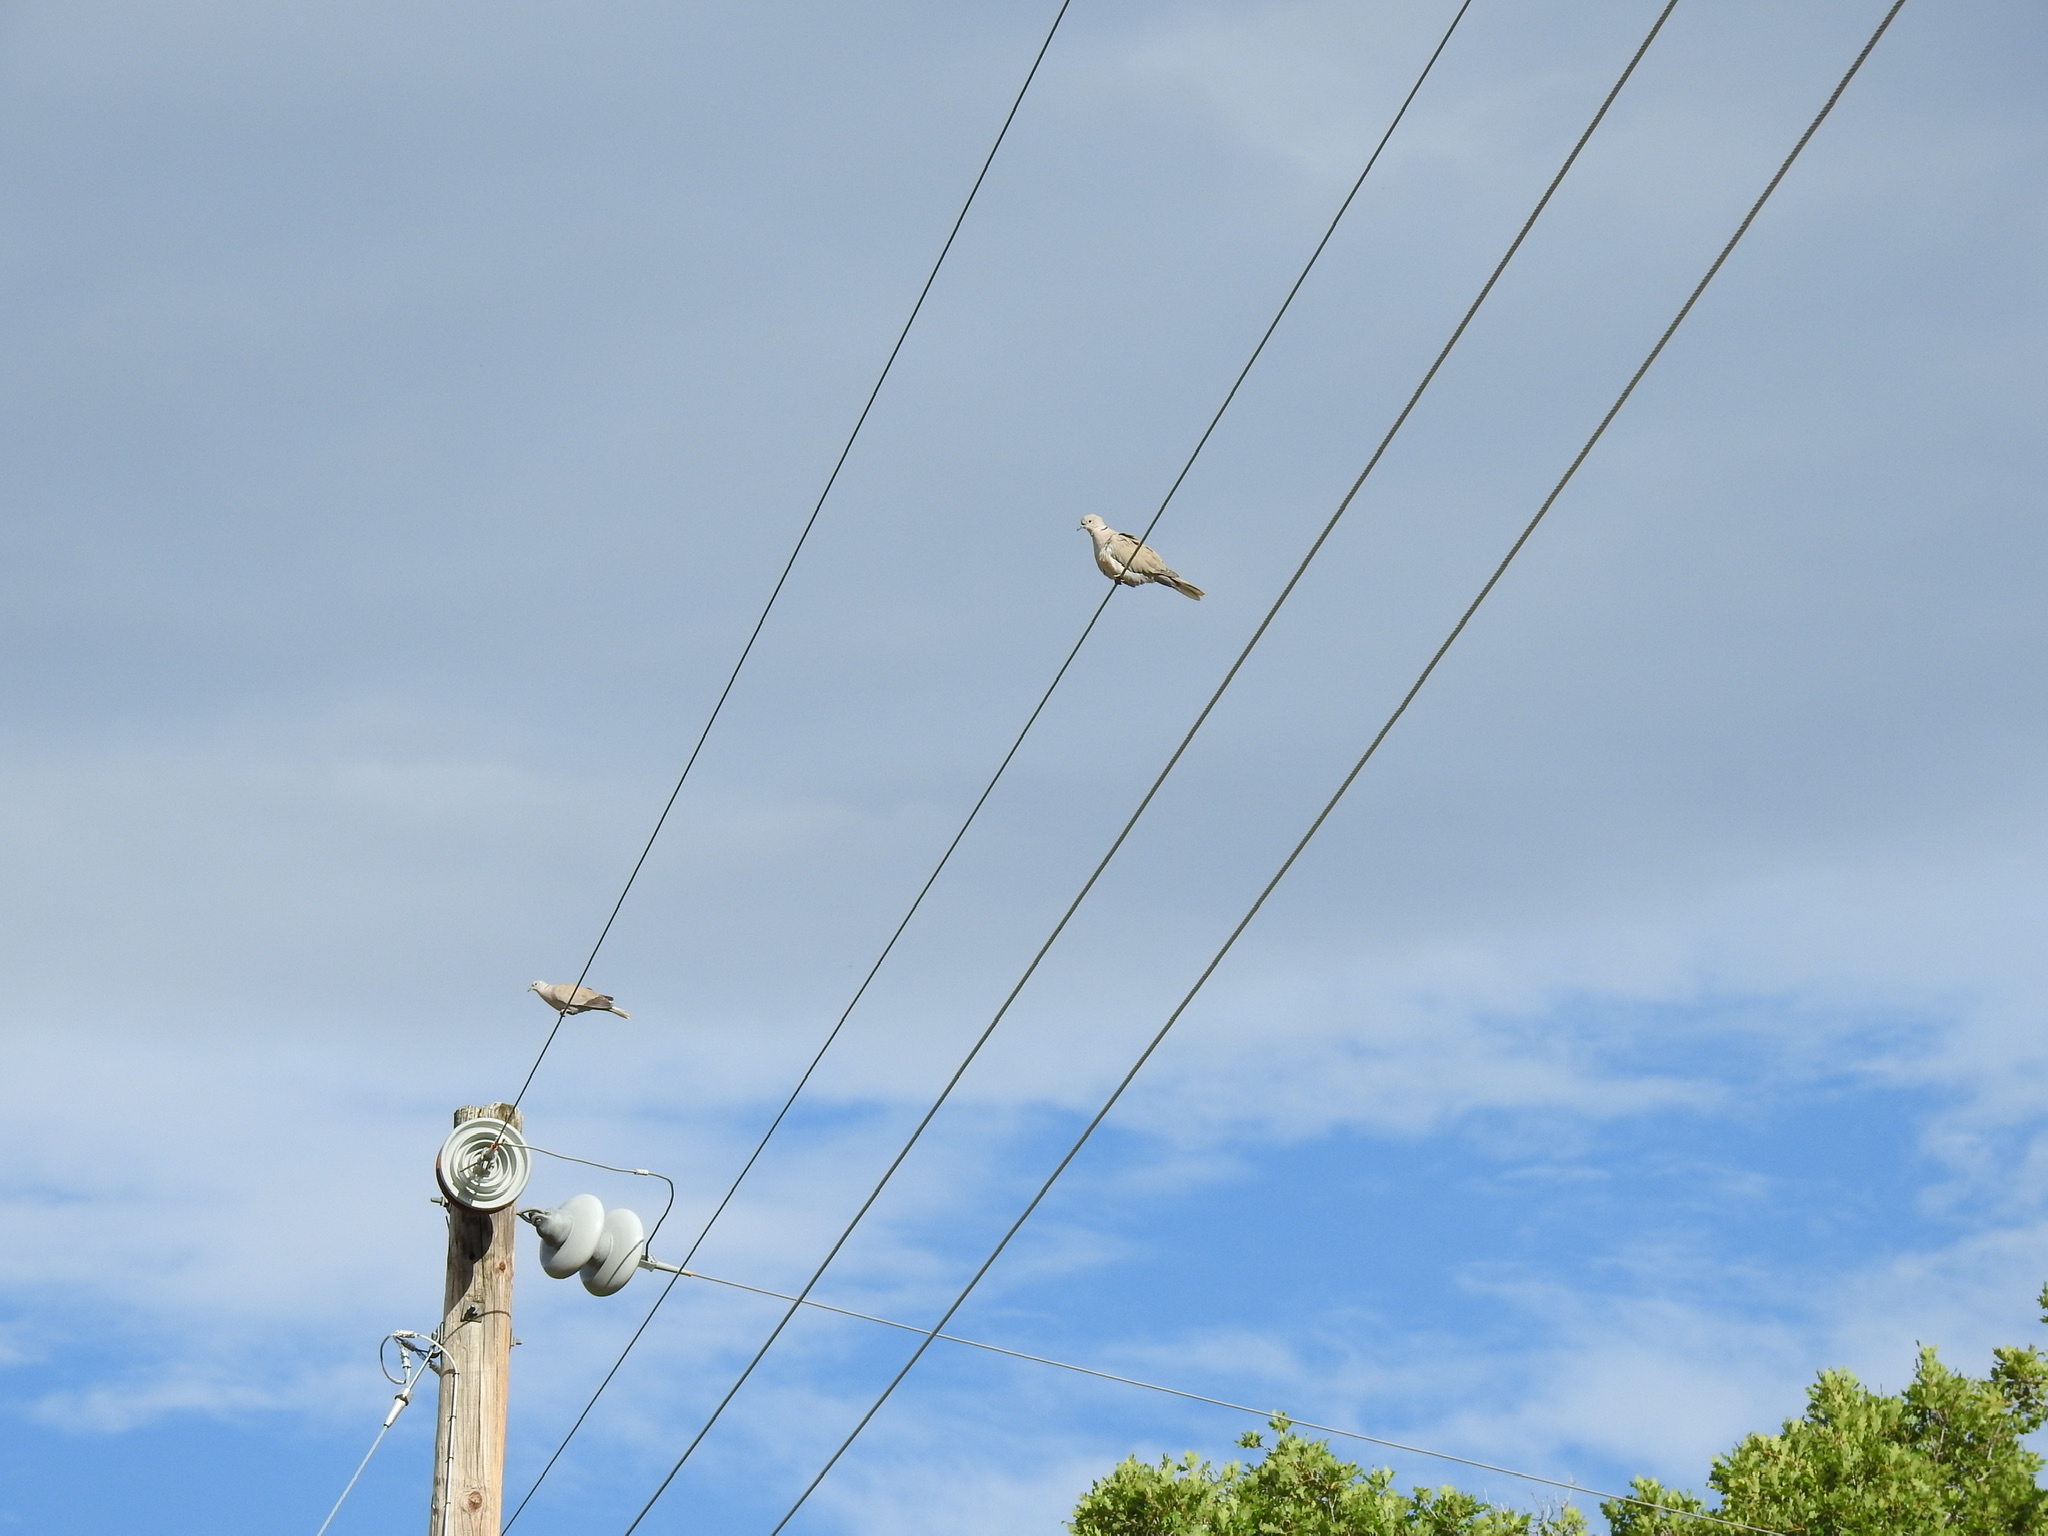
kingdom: Animalia
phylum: Chordata
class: Aves
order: Columbiformes
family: Columbidae
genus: Streptopelia
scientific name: Streptopelia decaocto
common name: Eurasian collared dove
